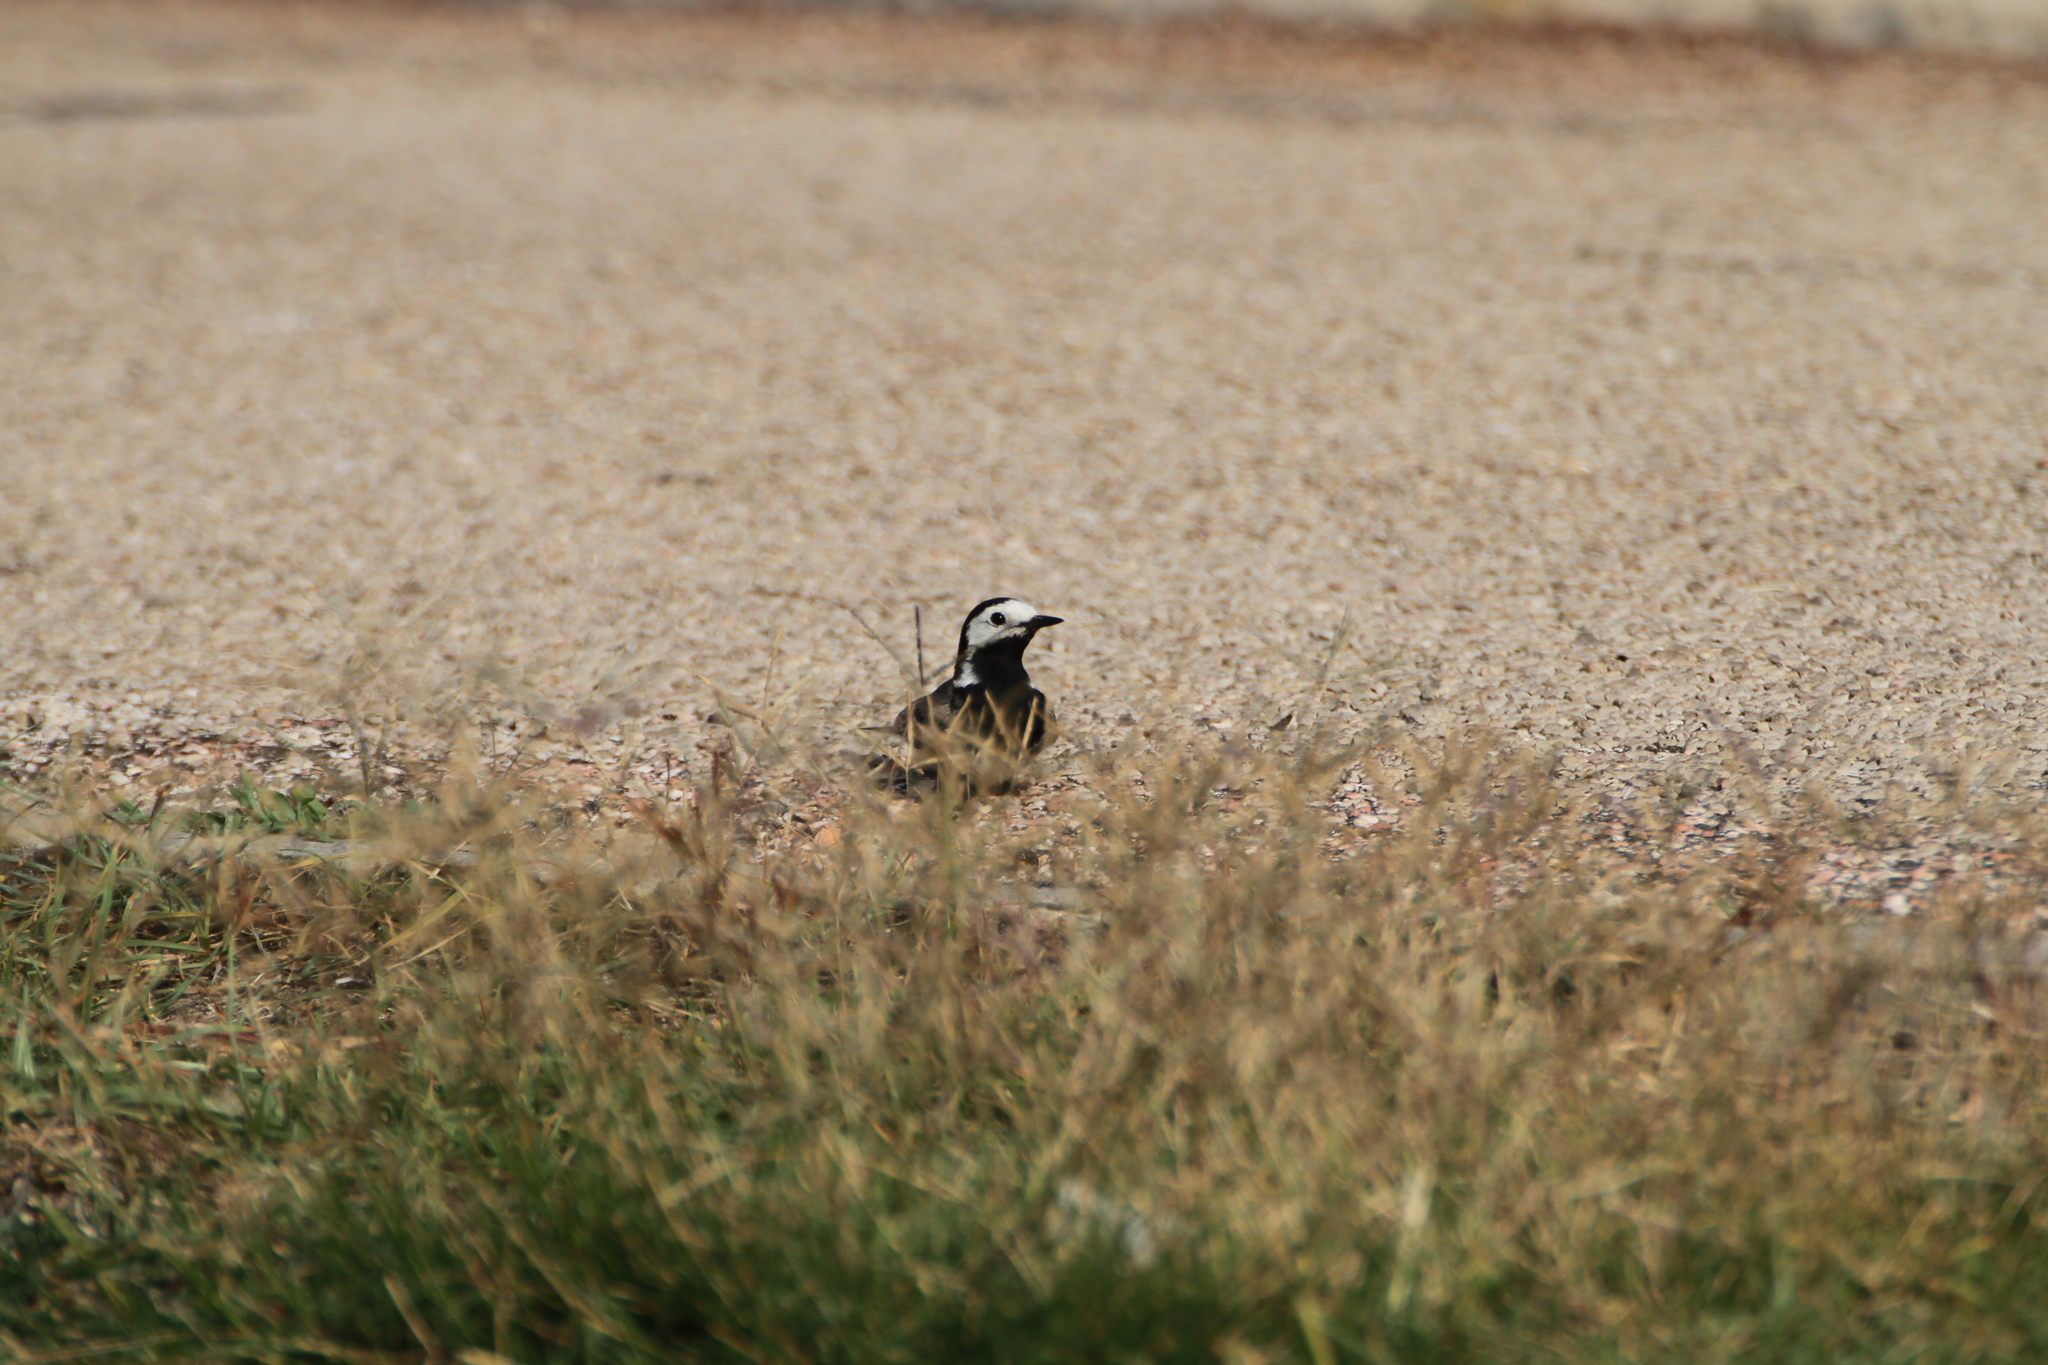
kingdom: Animalia
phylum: Chordata
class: Aves
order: Passeriformes
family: Motacillidae
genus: Motacilla
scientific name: Motacilla alba
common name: White wagtail
